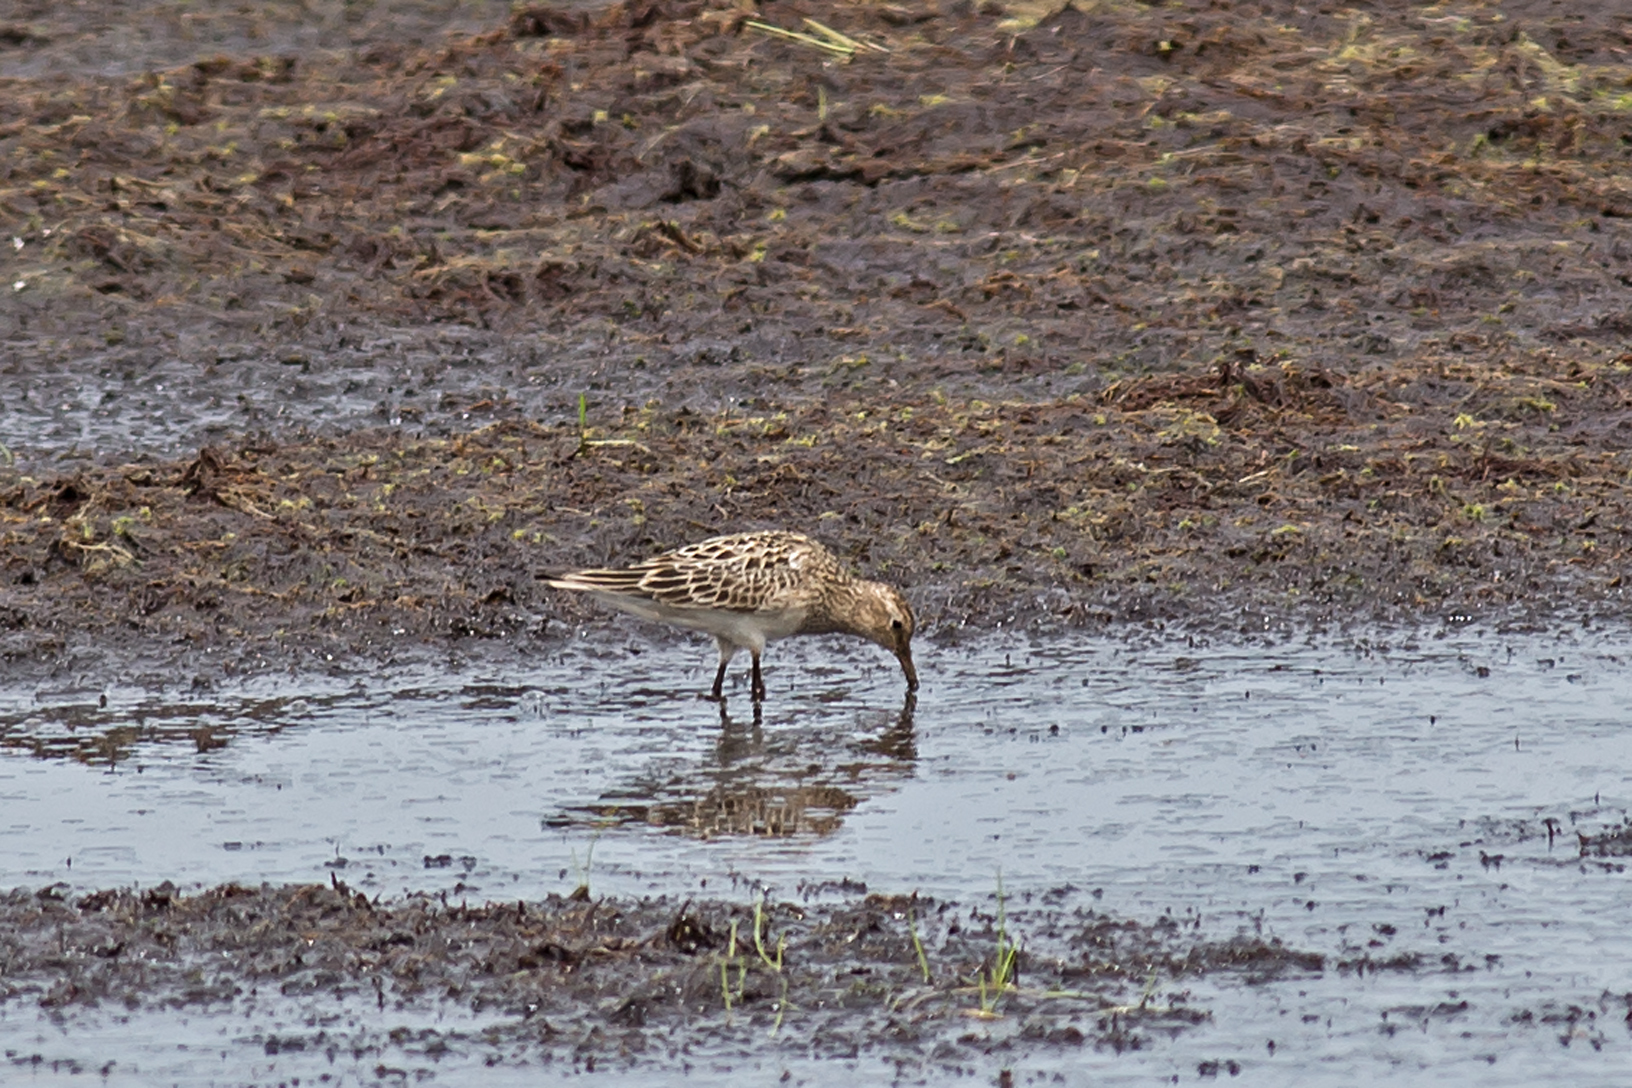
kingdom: Animalia
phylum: Chordata
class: Aves
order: Charadriiformes
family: Scolopacidae
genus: Calidris
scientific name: Calidris melanotos
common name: Pectoral sandpiper
